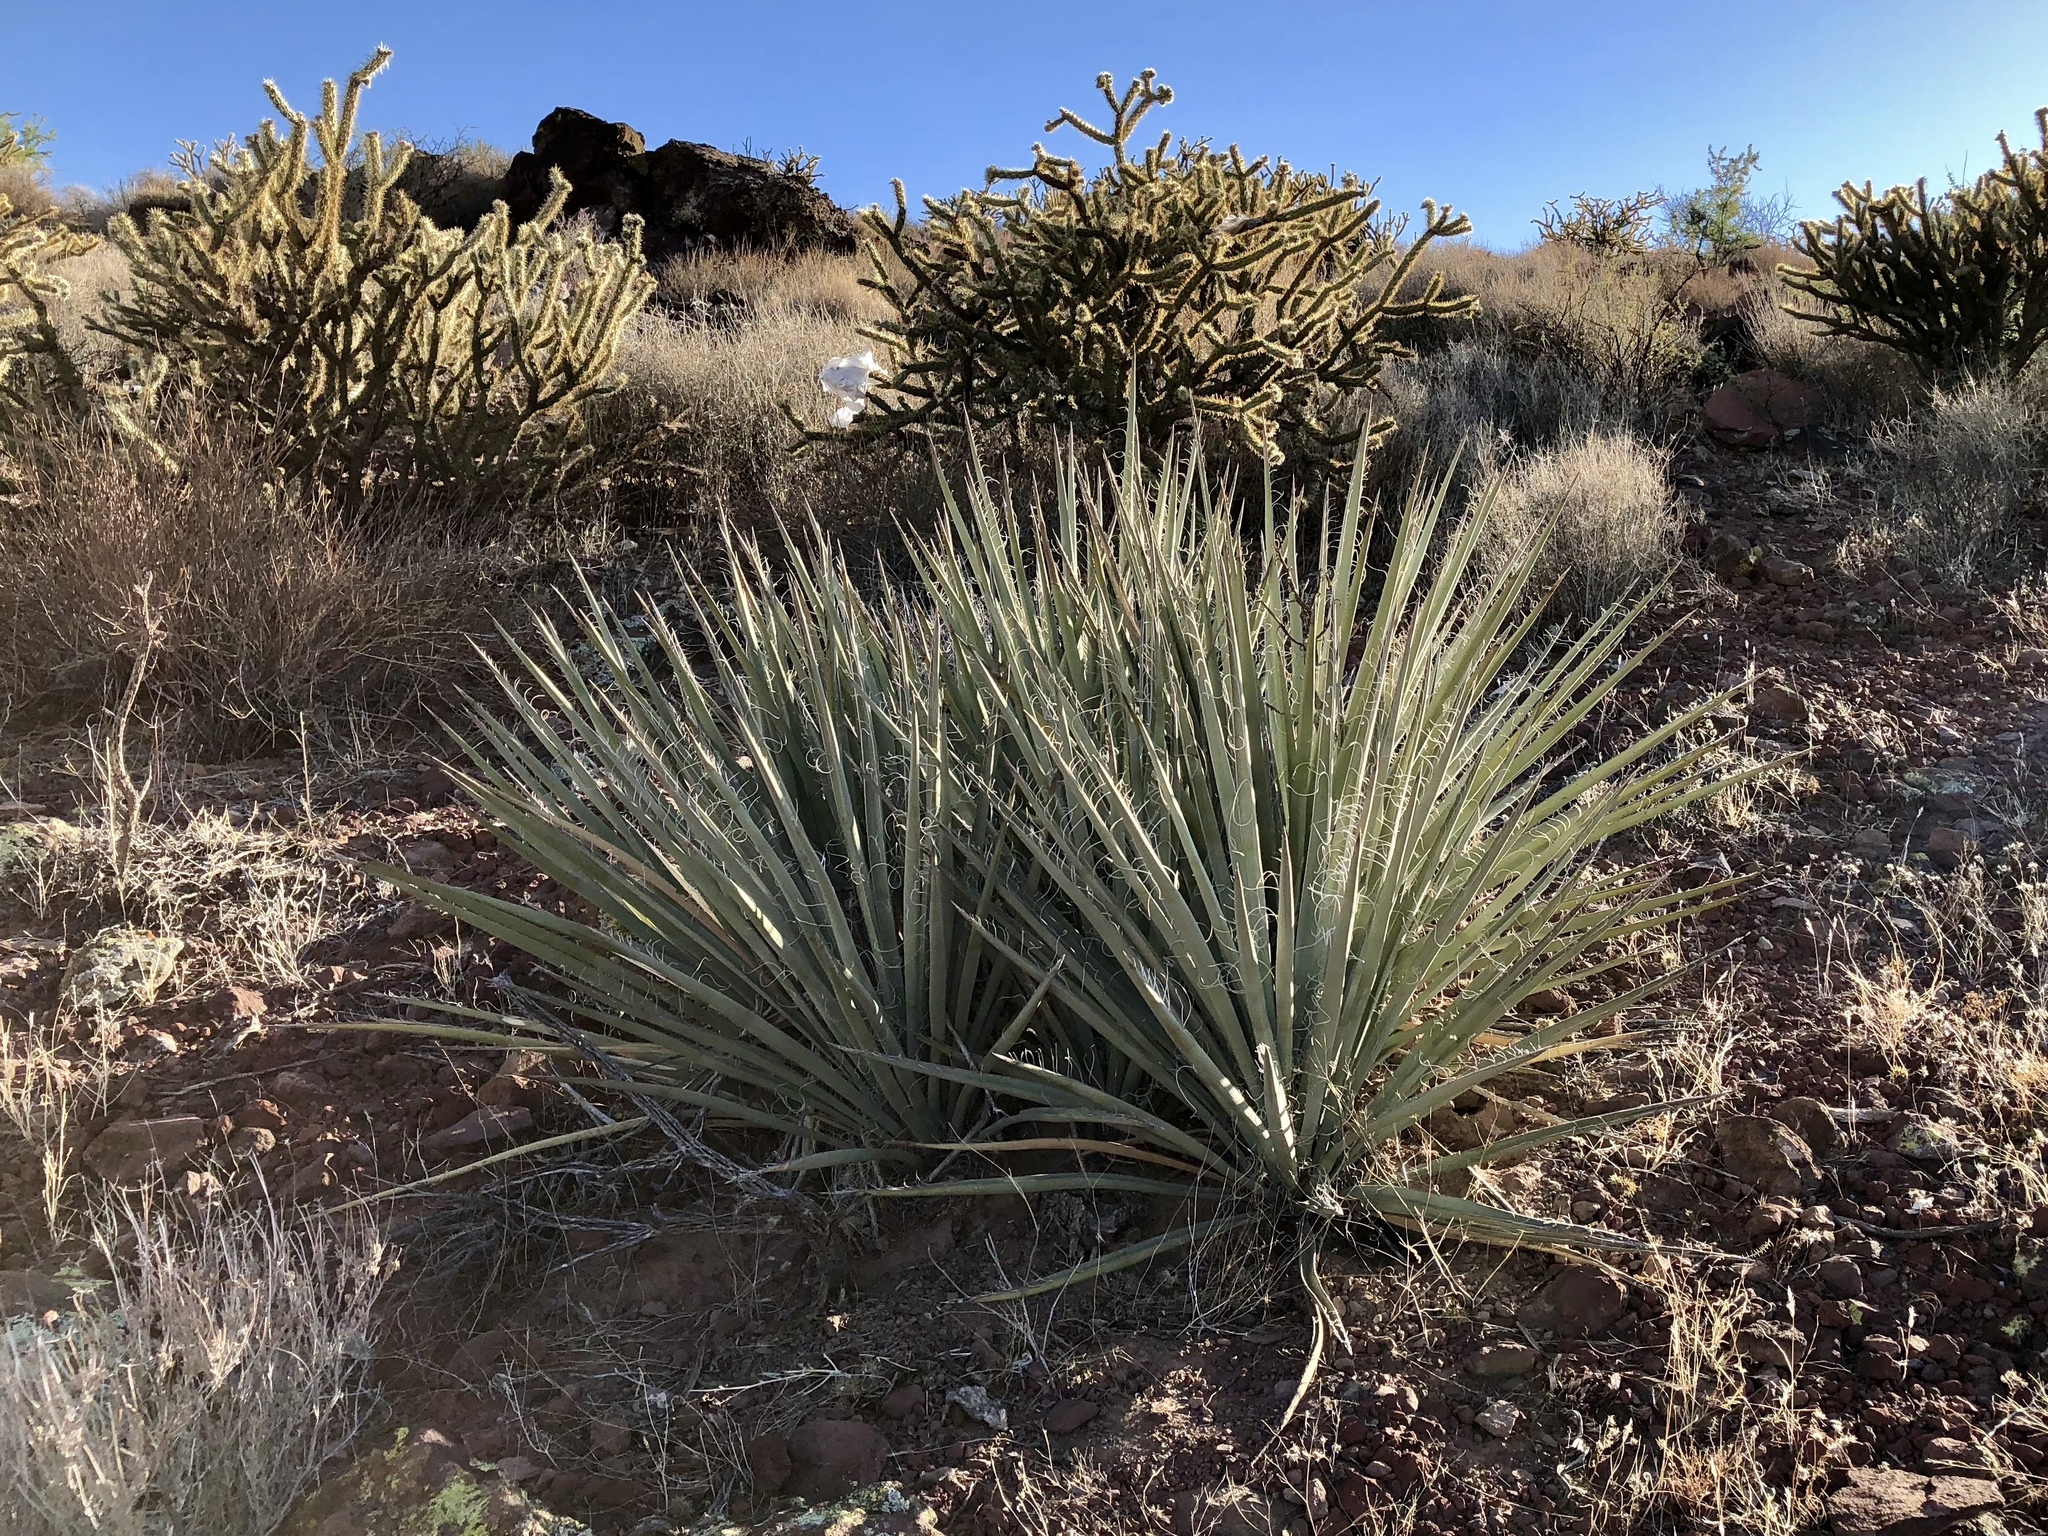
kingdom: Plantae
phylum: Tracheophyta
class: Liliopsida
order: Asparagales
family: Asparagaceae
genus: Yucca
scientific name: Yucca baccata
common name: Banana yucca
